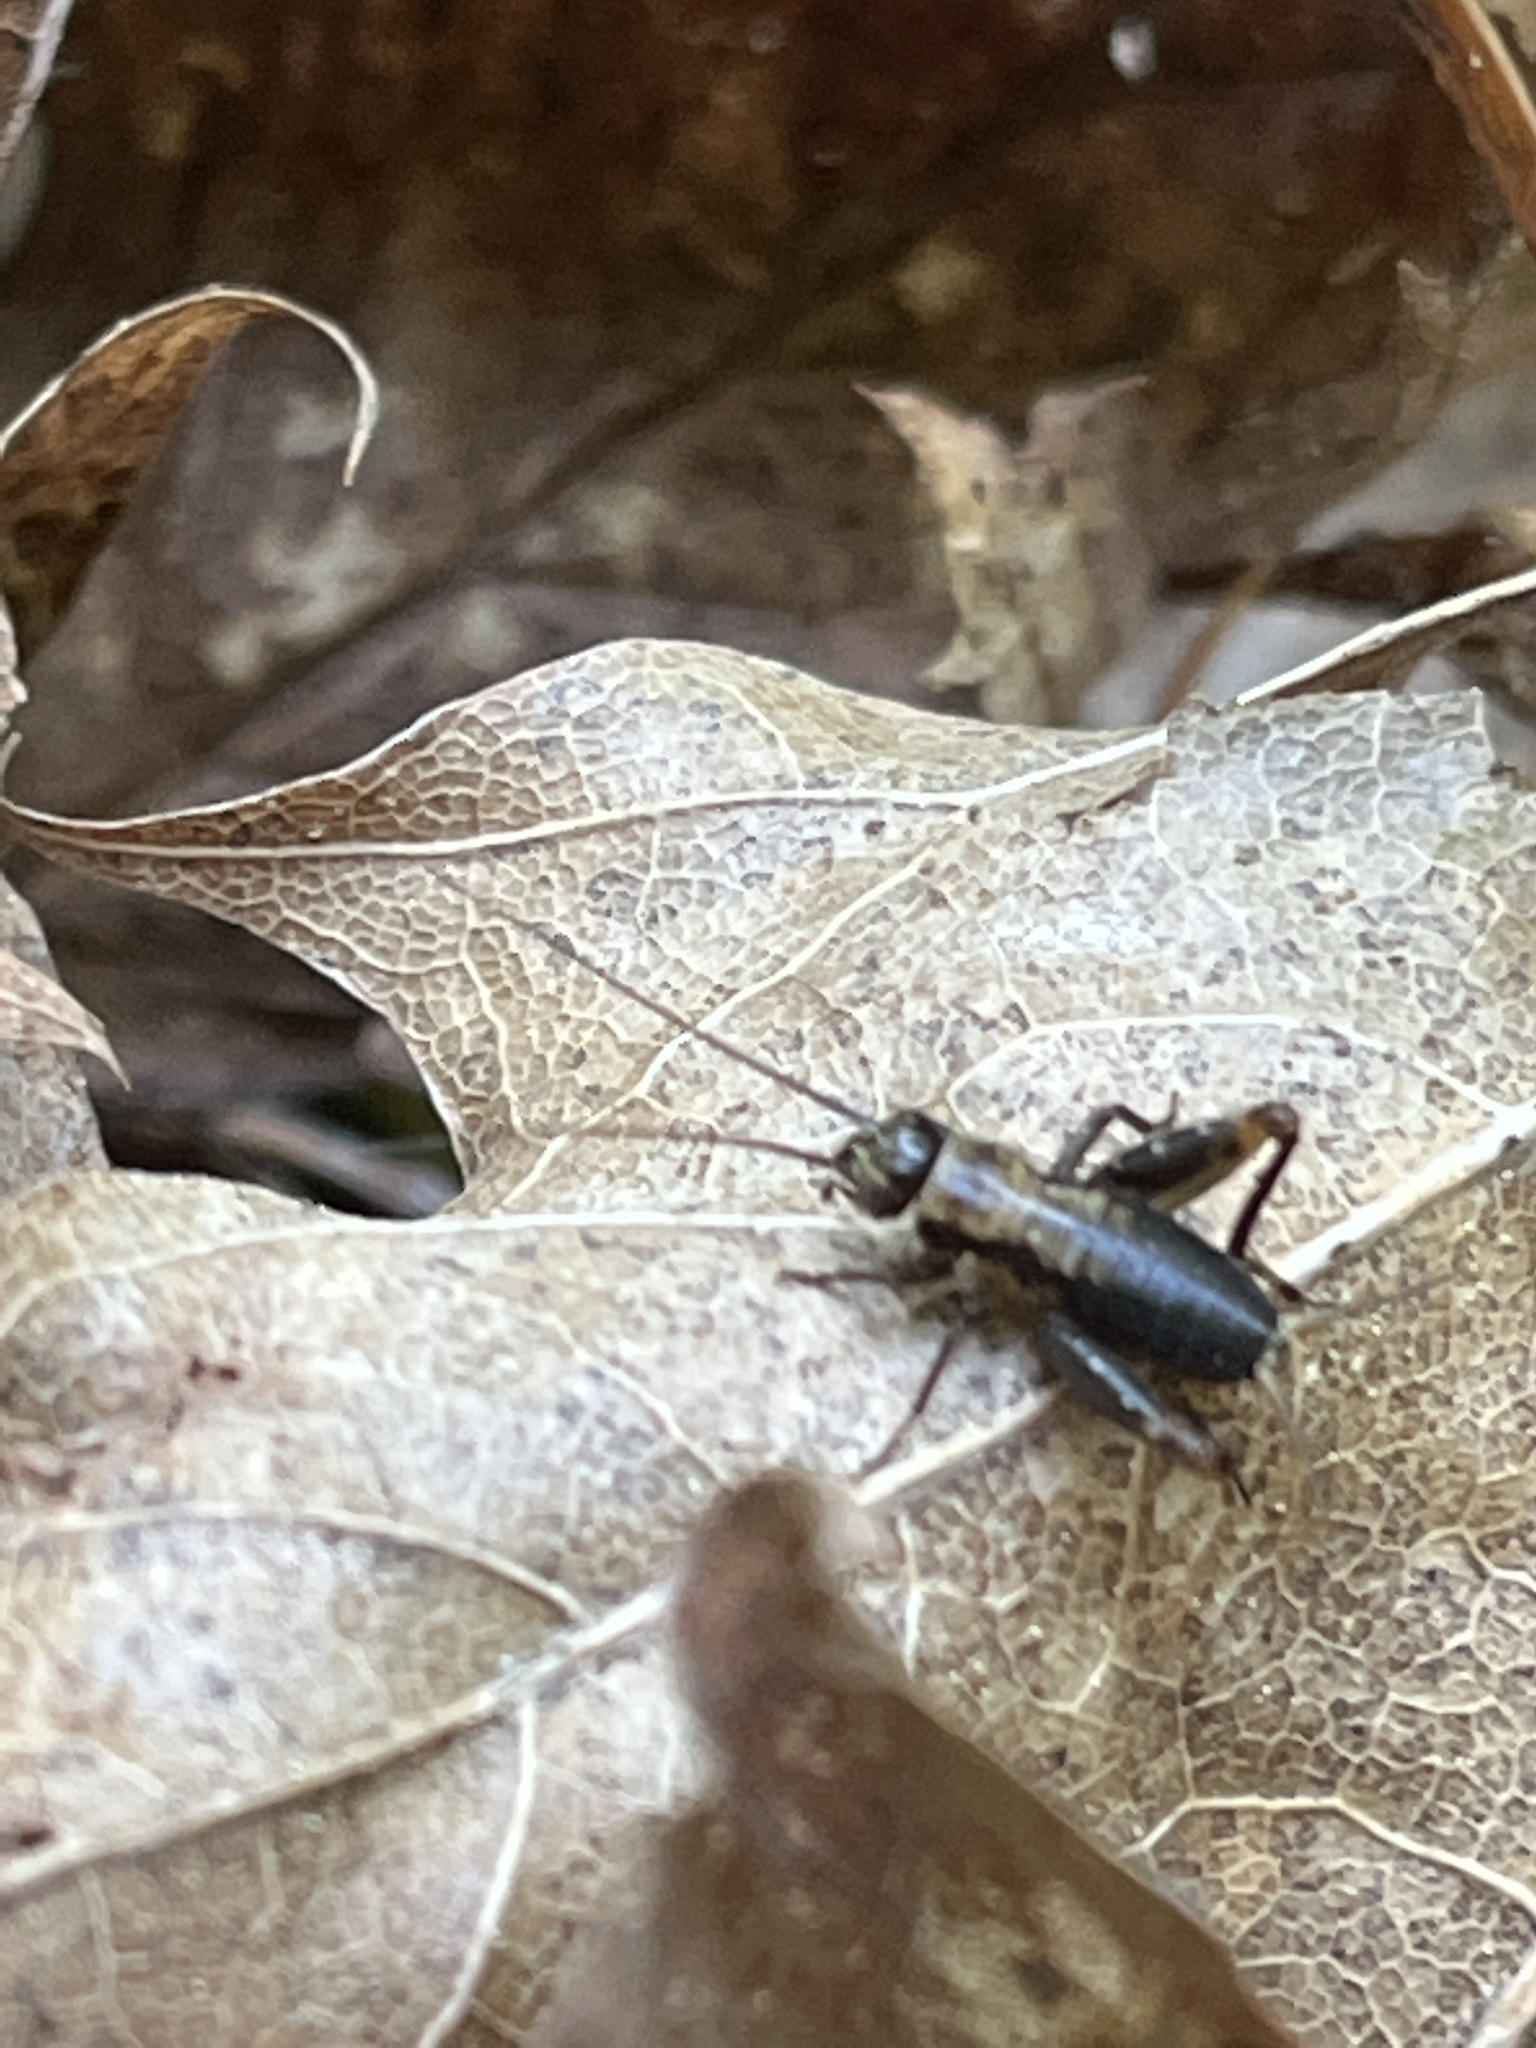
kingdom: Animalia
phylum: Arthropoda
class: Insecta
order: Orthoptera
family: Trigonidiidae
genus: Nemobius
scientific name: Nemobius sylvestris
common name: Wood-cricket
